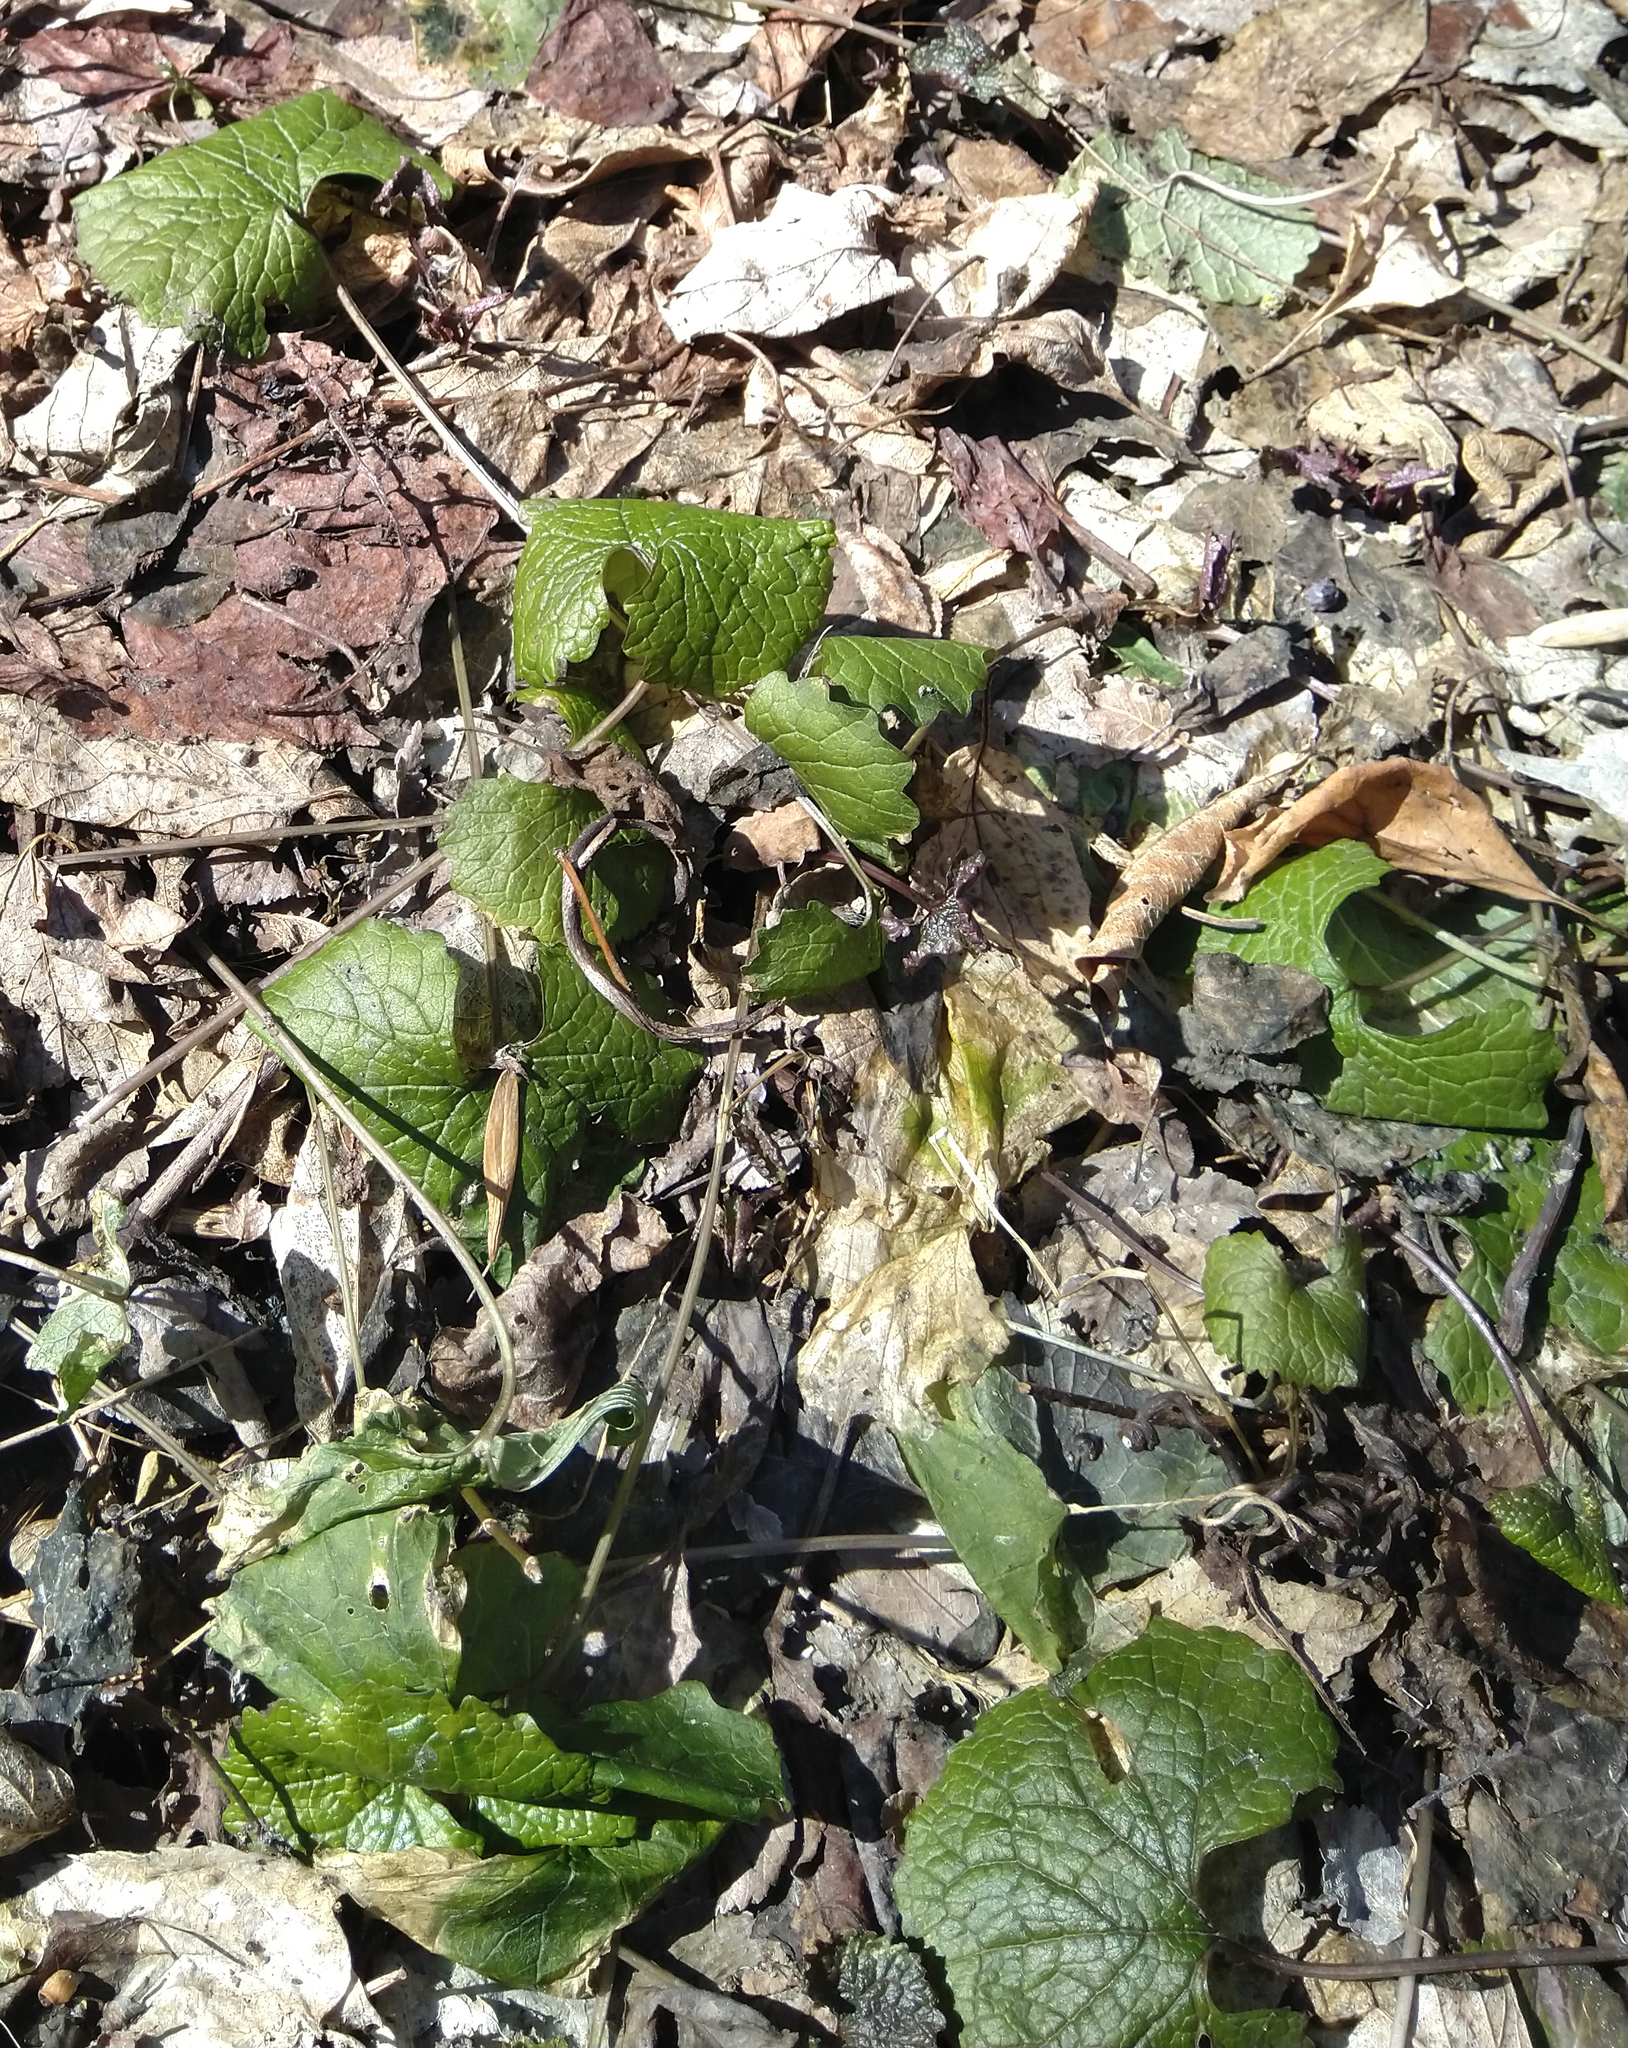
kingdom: Plantae
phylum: Tracheophyta
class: Magnoliopsida
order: Brassicales
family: Brassicaceae
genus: Alliaria
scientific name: Alliaria petiolata
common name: Garlic mustard
